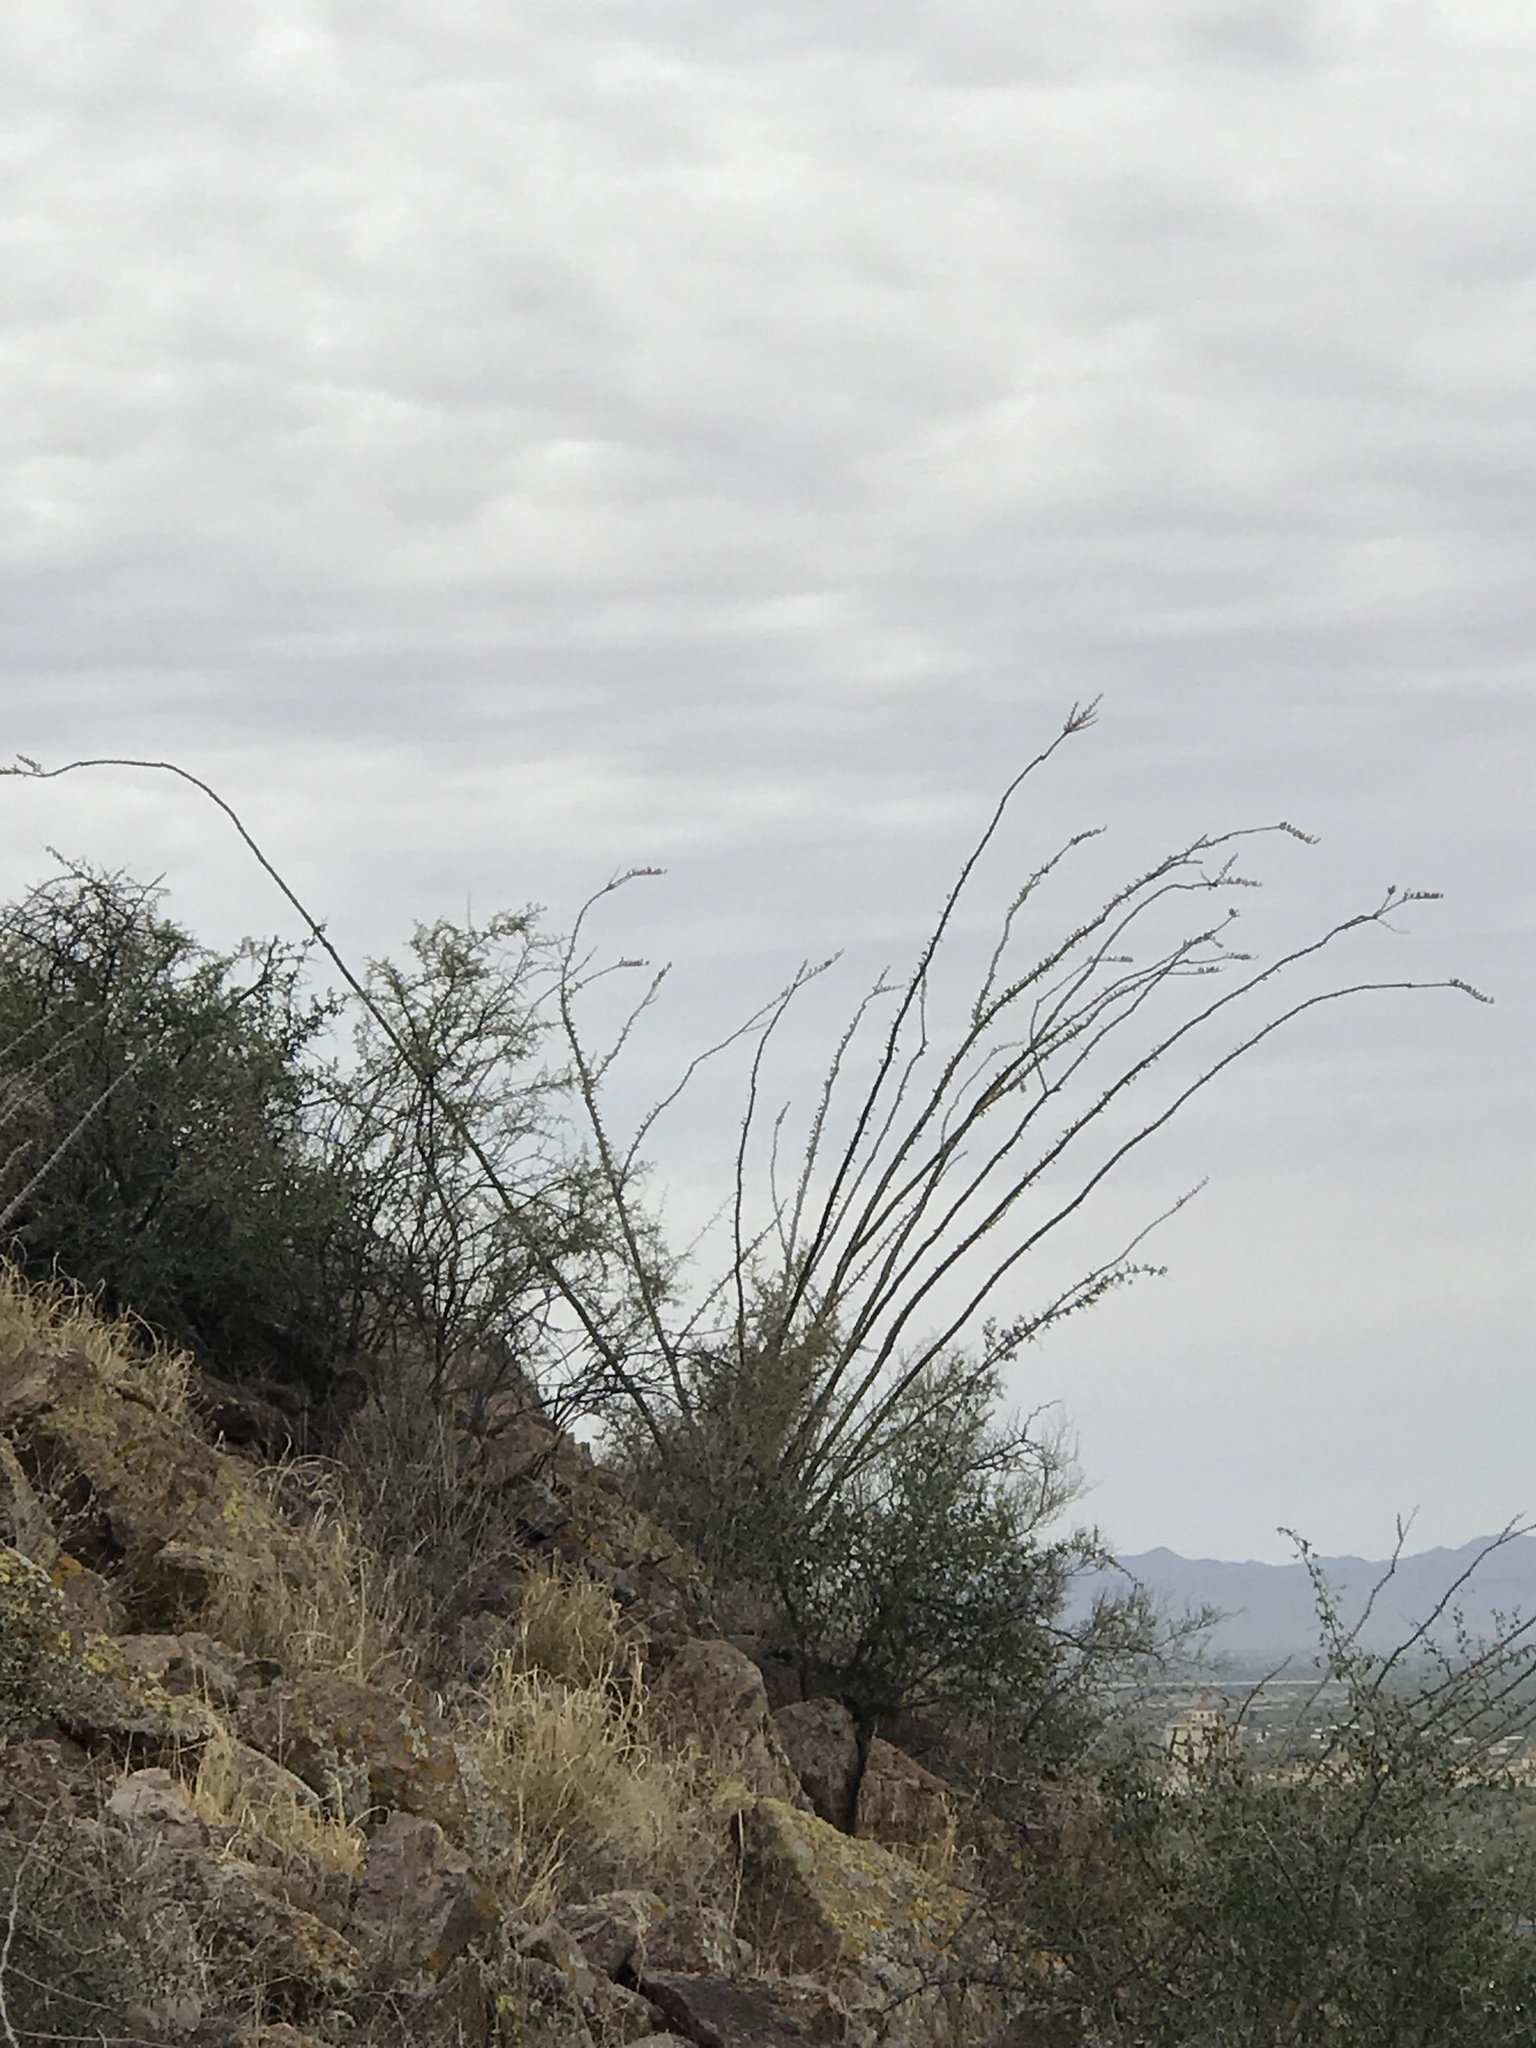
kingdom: Plantae
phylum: Tracheophyta
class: Magnoliopsida
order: Ericales
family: Fouquieriaceae
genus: Fouquieria
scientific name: Fouquieria splendens
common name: Vine-cactus
